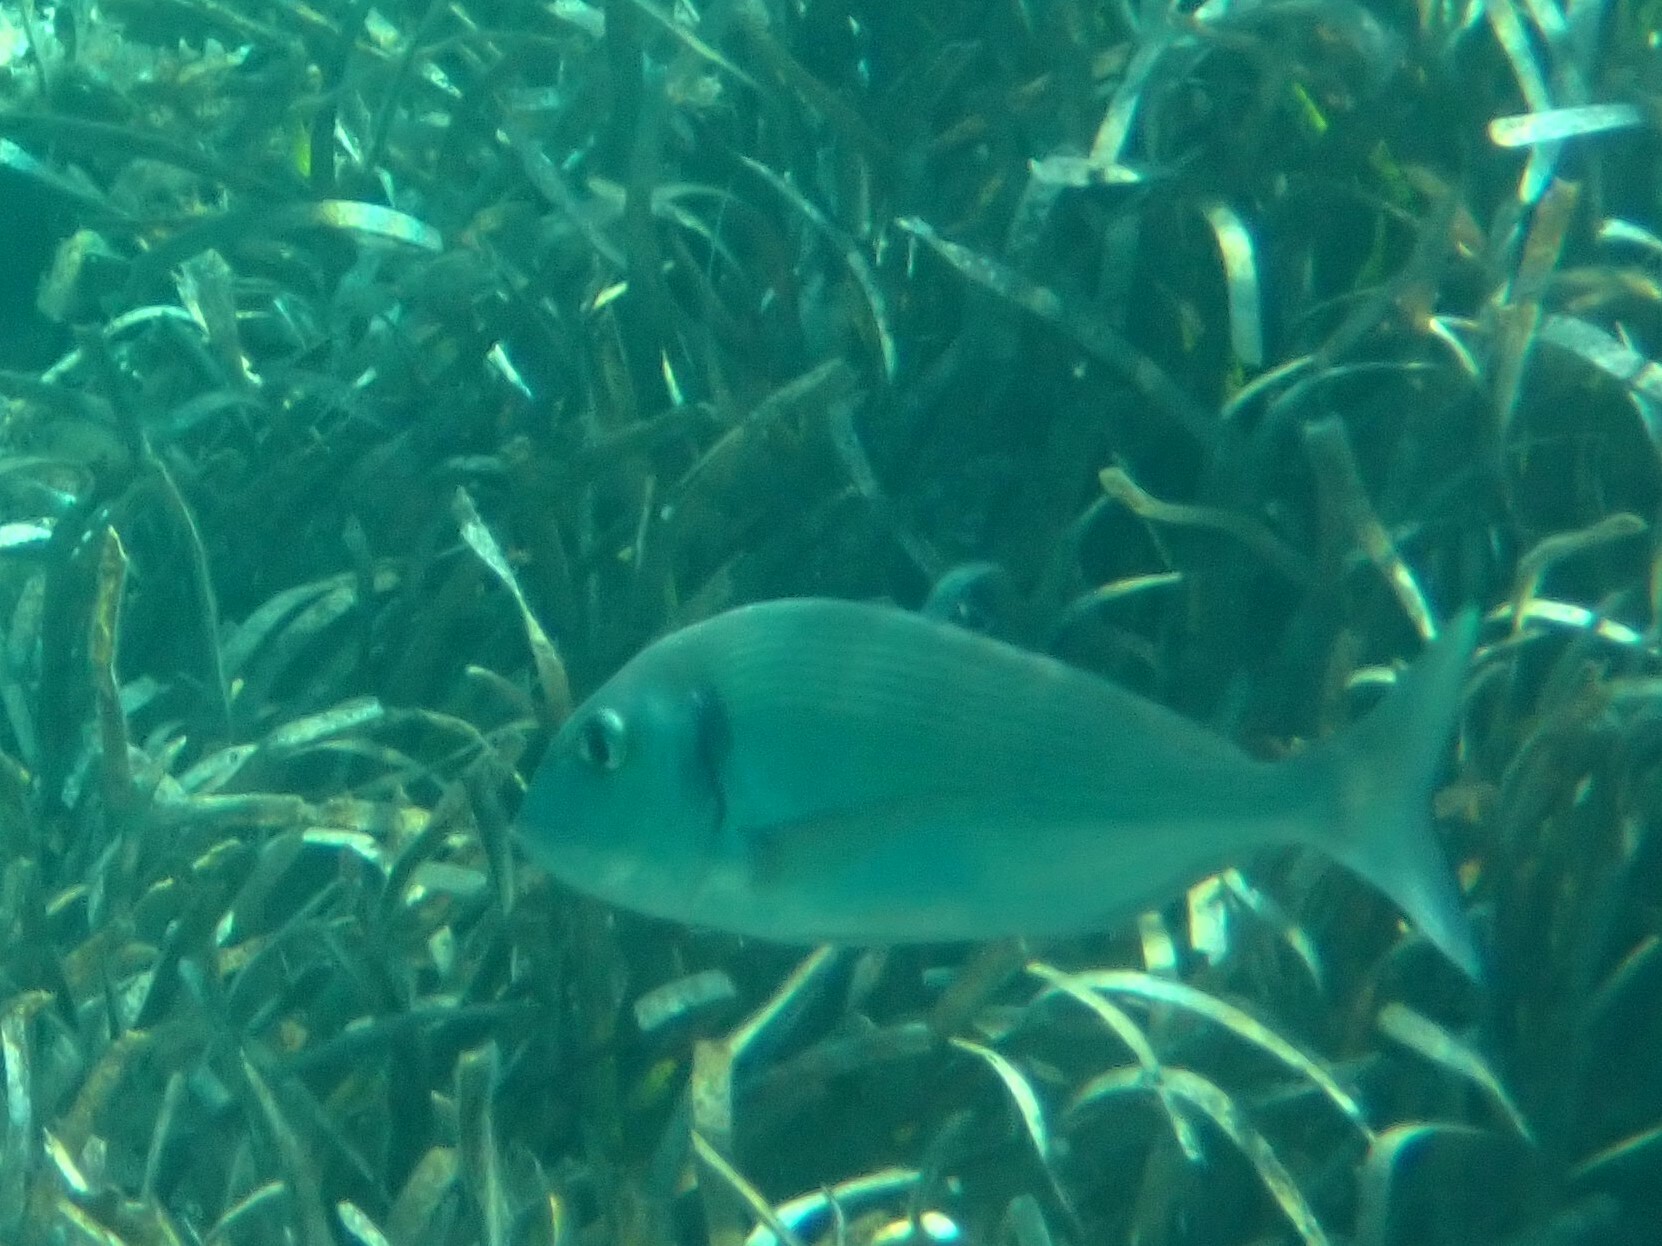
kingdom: Animalia
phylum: Chordata
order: Perciformes
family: Sparidae
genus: Sparus
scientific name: Sparus aurata
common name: Gilthead
